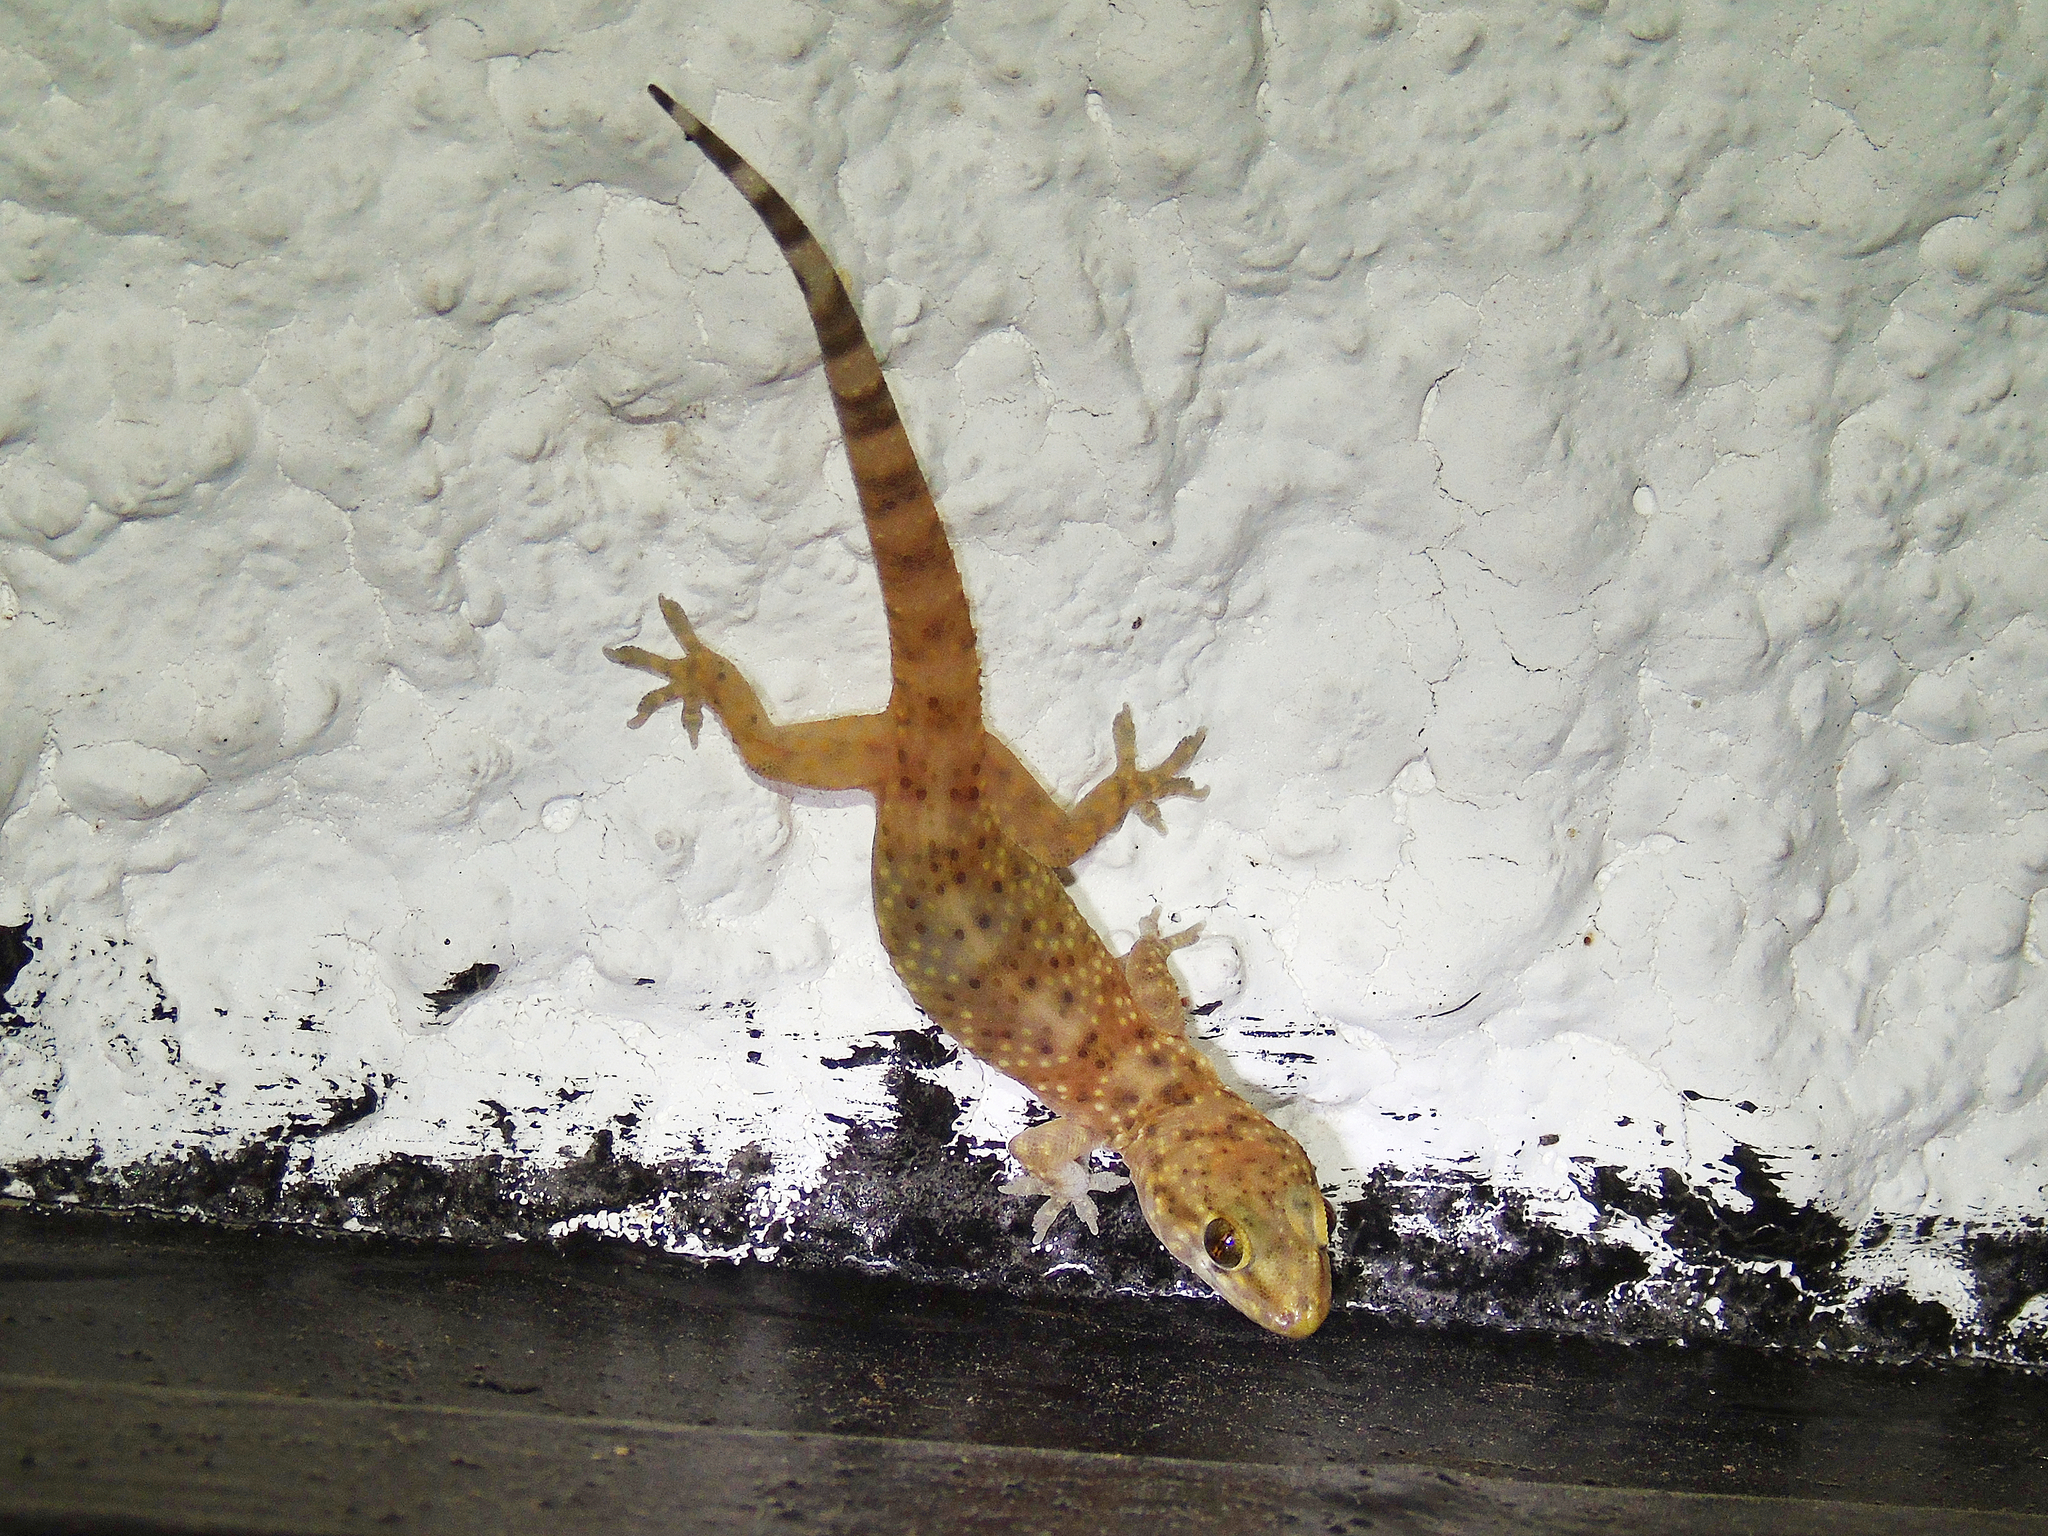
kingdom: Animalia
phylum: Chordata
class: Squamata
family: Gekkonidae
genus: Hemidactylus
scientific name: Hemidactylus turcicus
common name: Turkish gecko
